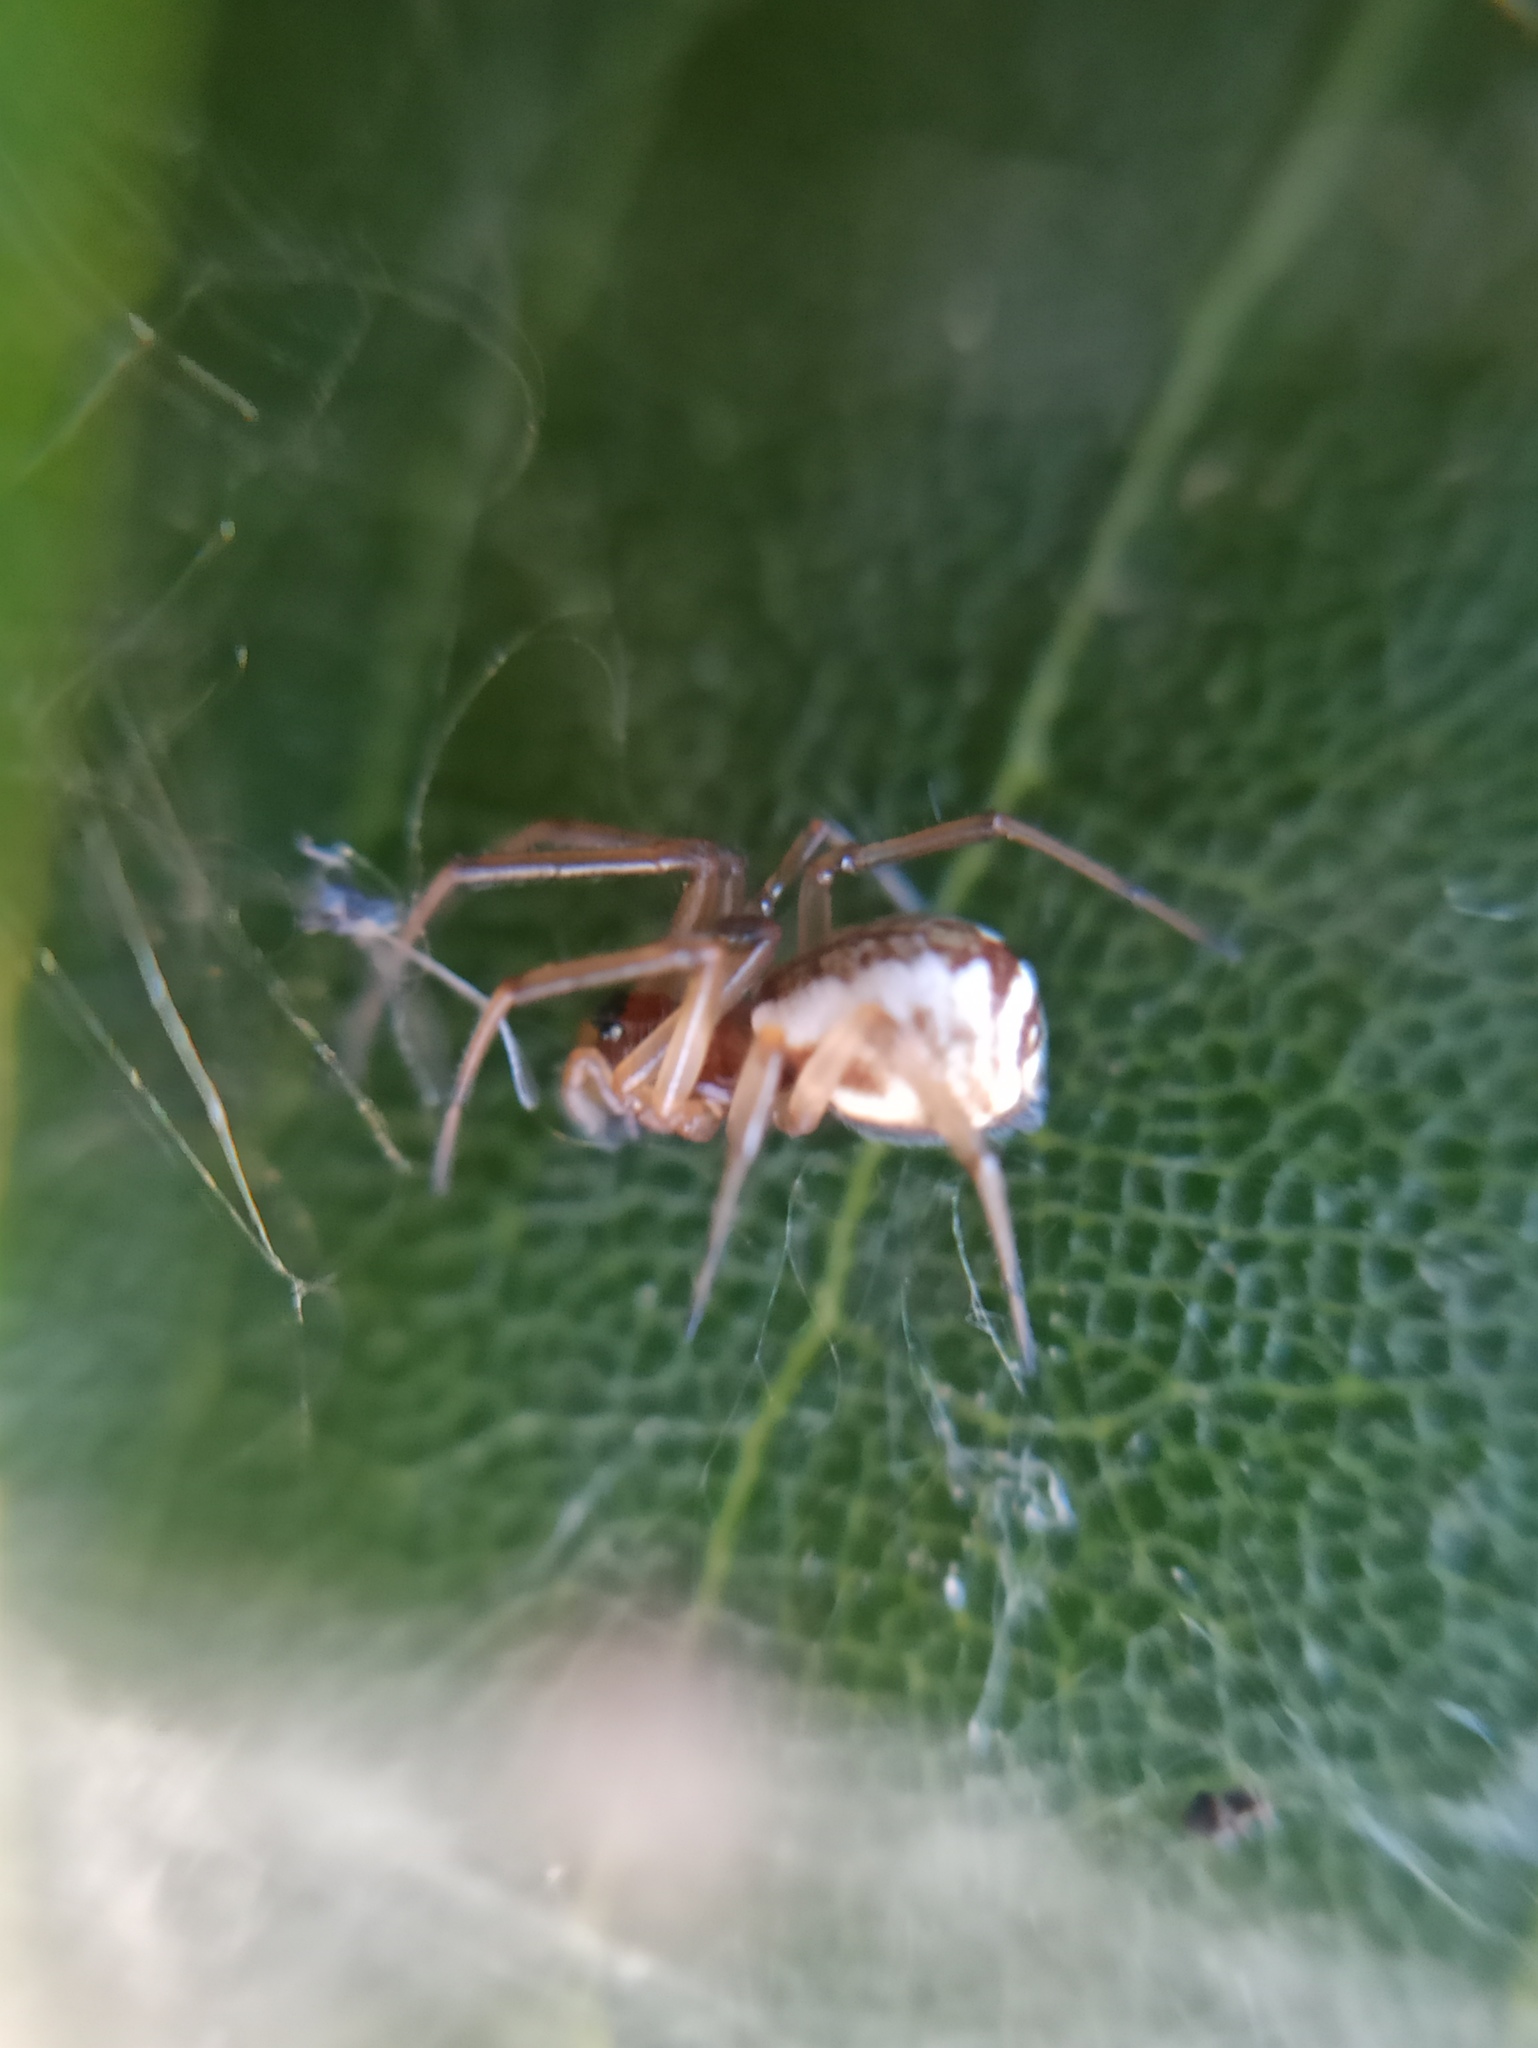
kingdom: Animalia
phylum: Arthropoda
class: Arachnida
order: Araneae
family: Linyphiidae
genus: Frontinellina
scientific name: Frontinellina frutetorum
